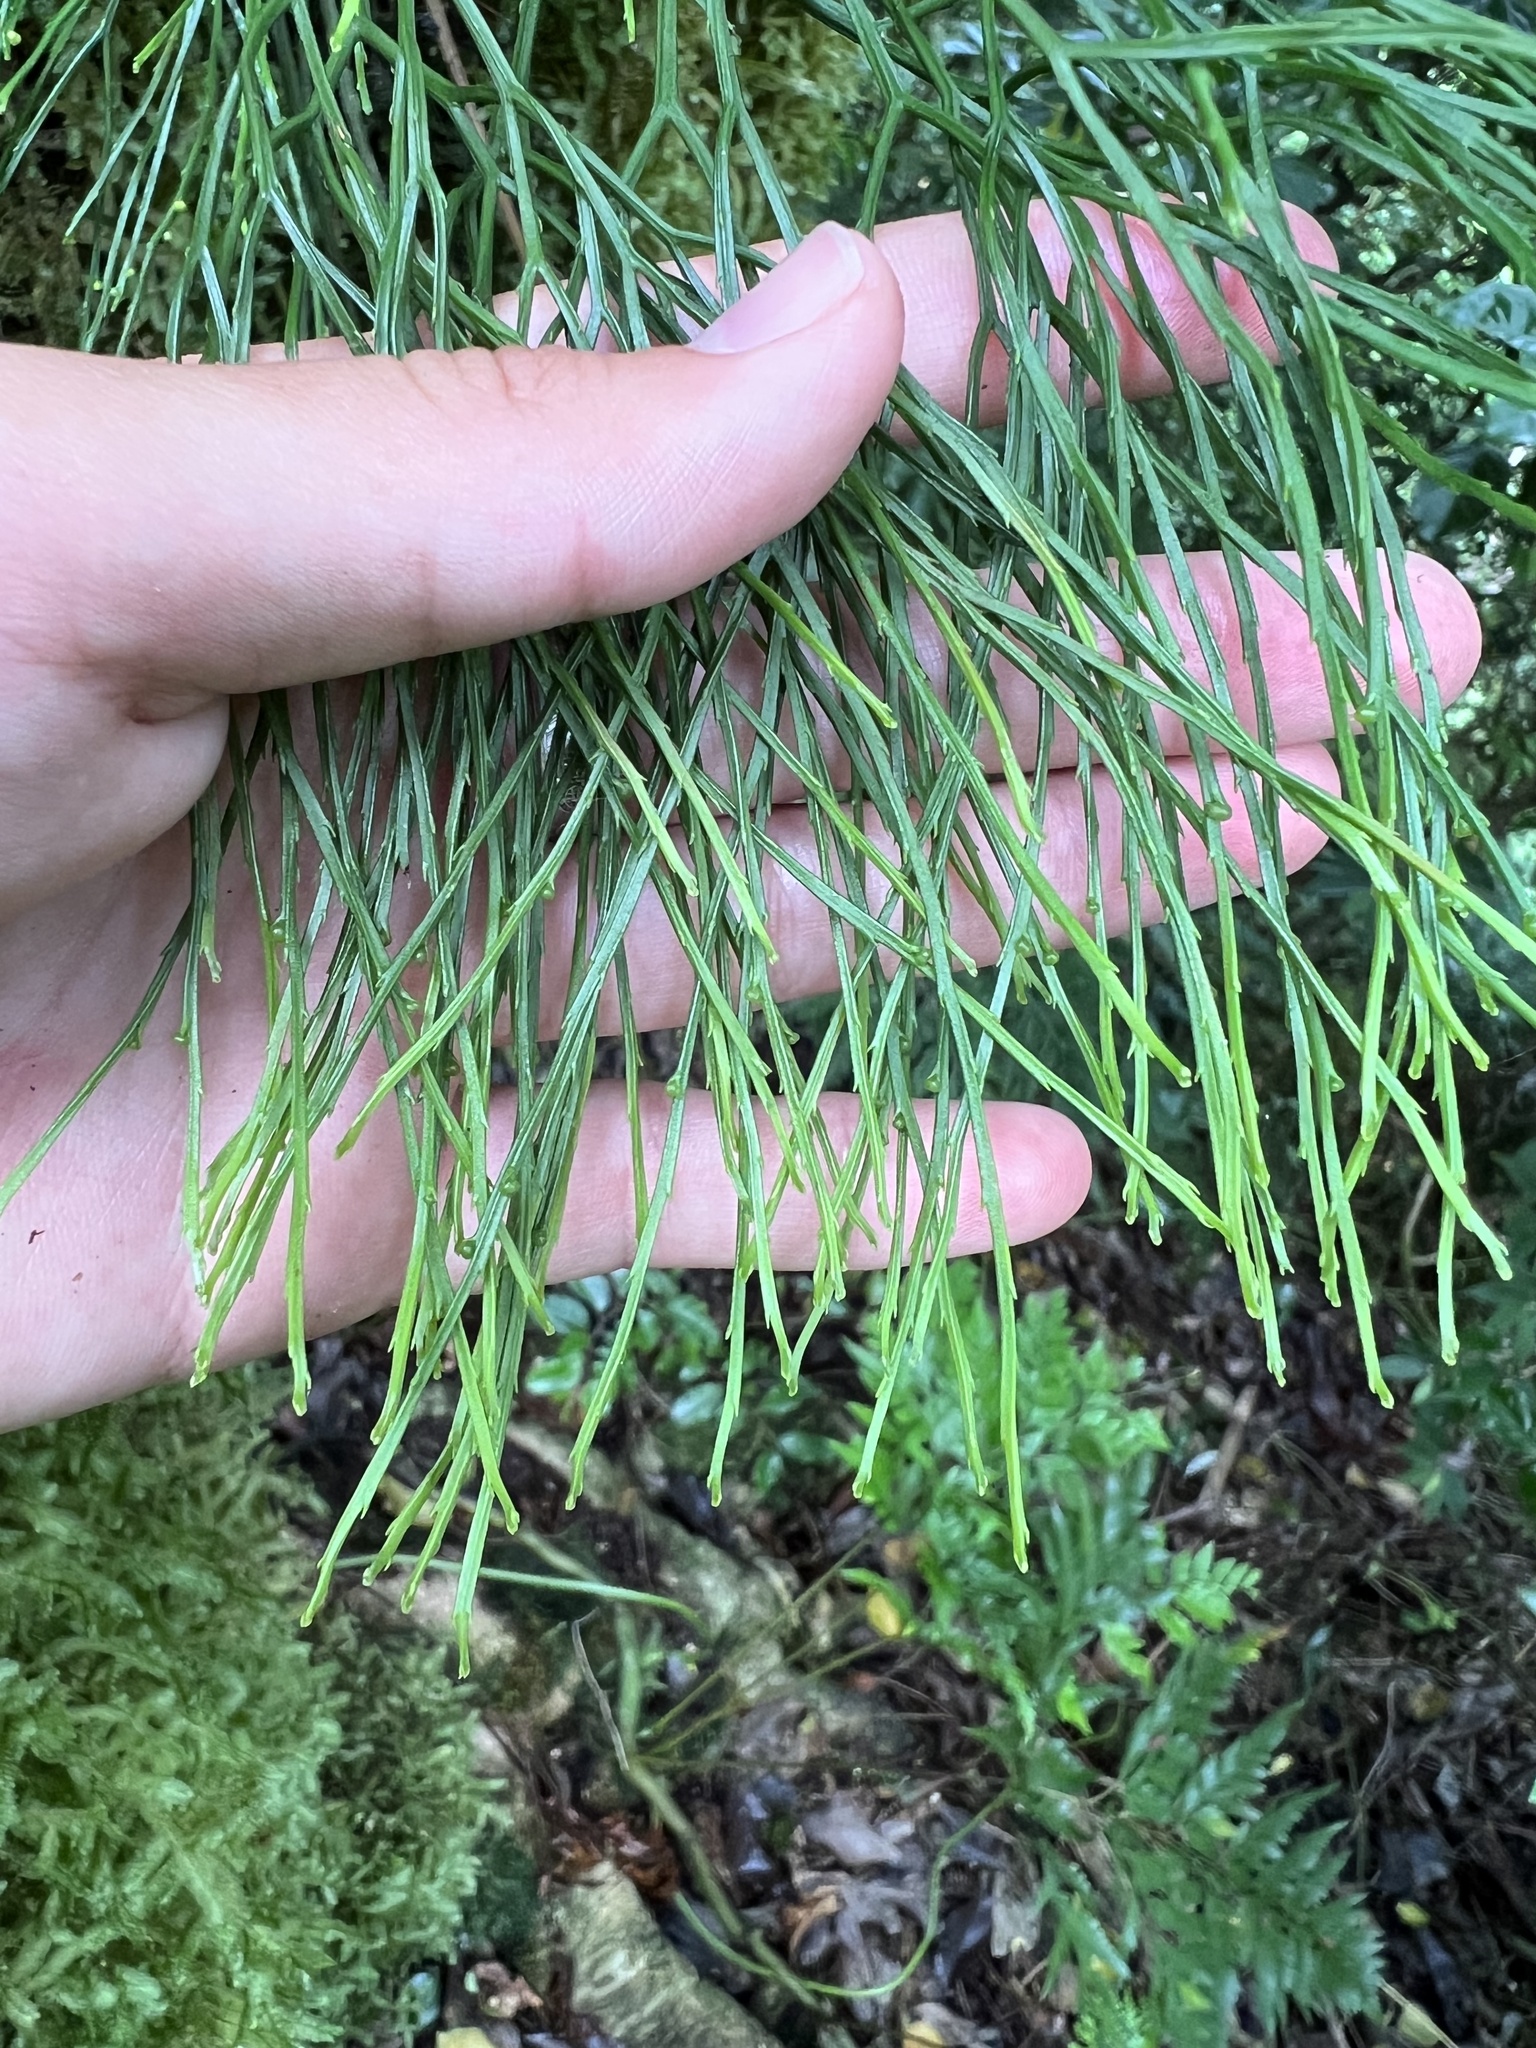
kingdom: Plantae
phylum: Tracheophyta
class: Polypodiopsida
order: Psilotales
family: Psilotaceae
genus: Psilotum
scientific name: Psilotum nudum
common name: Skeleton fork fern
